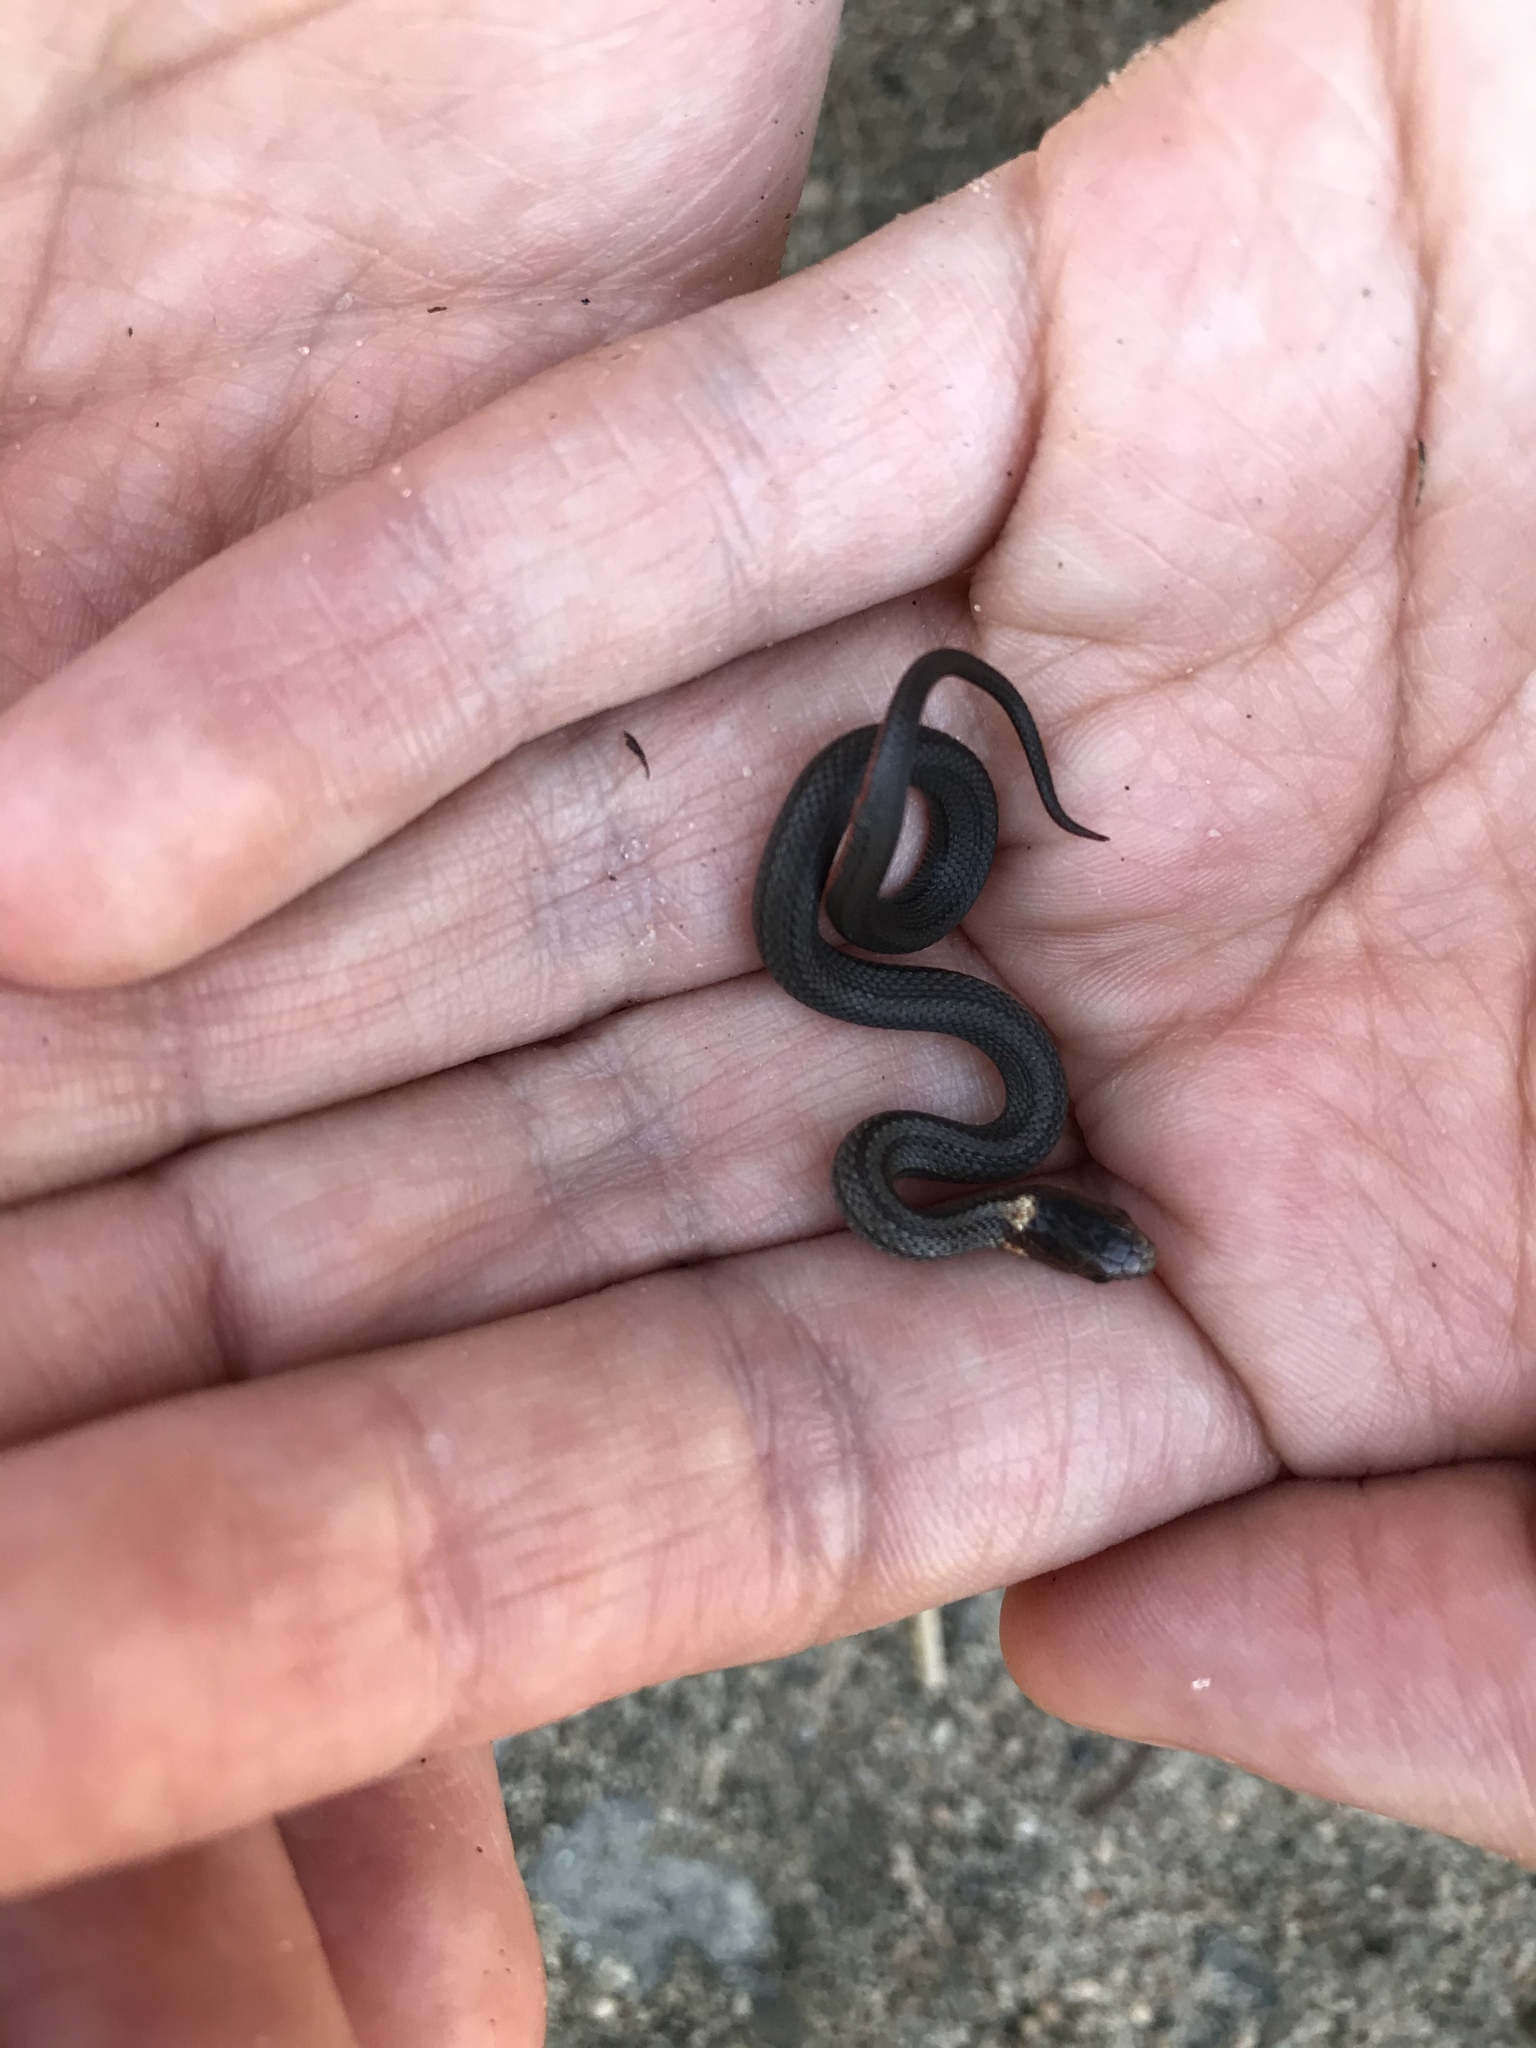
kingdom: Animalia
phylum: Chordata
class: Squamata
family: Colubridae
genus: Storeria
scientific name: Storeria occipitomaculata
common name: Redbelly snake
